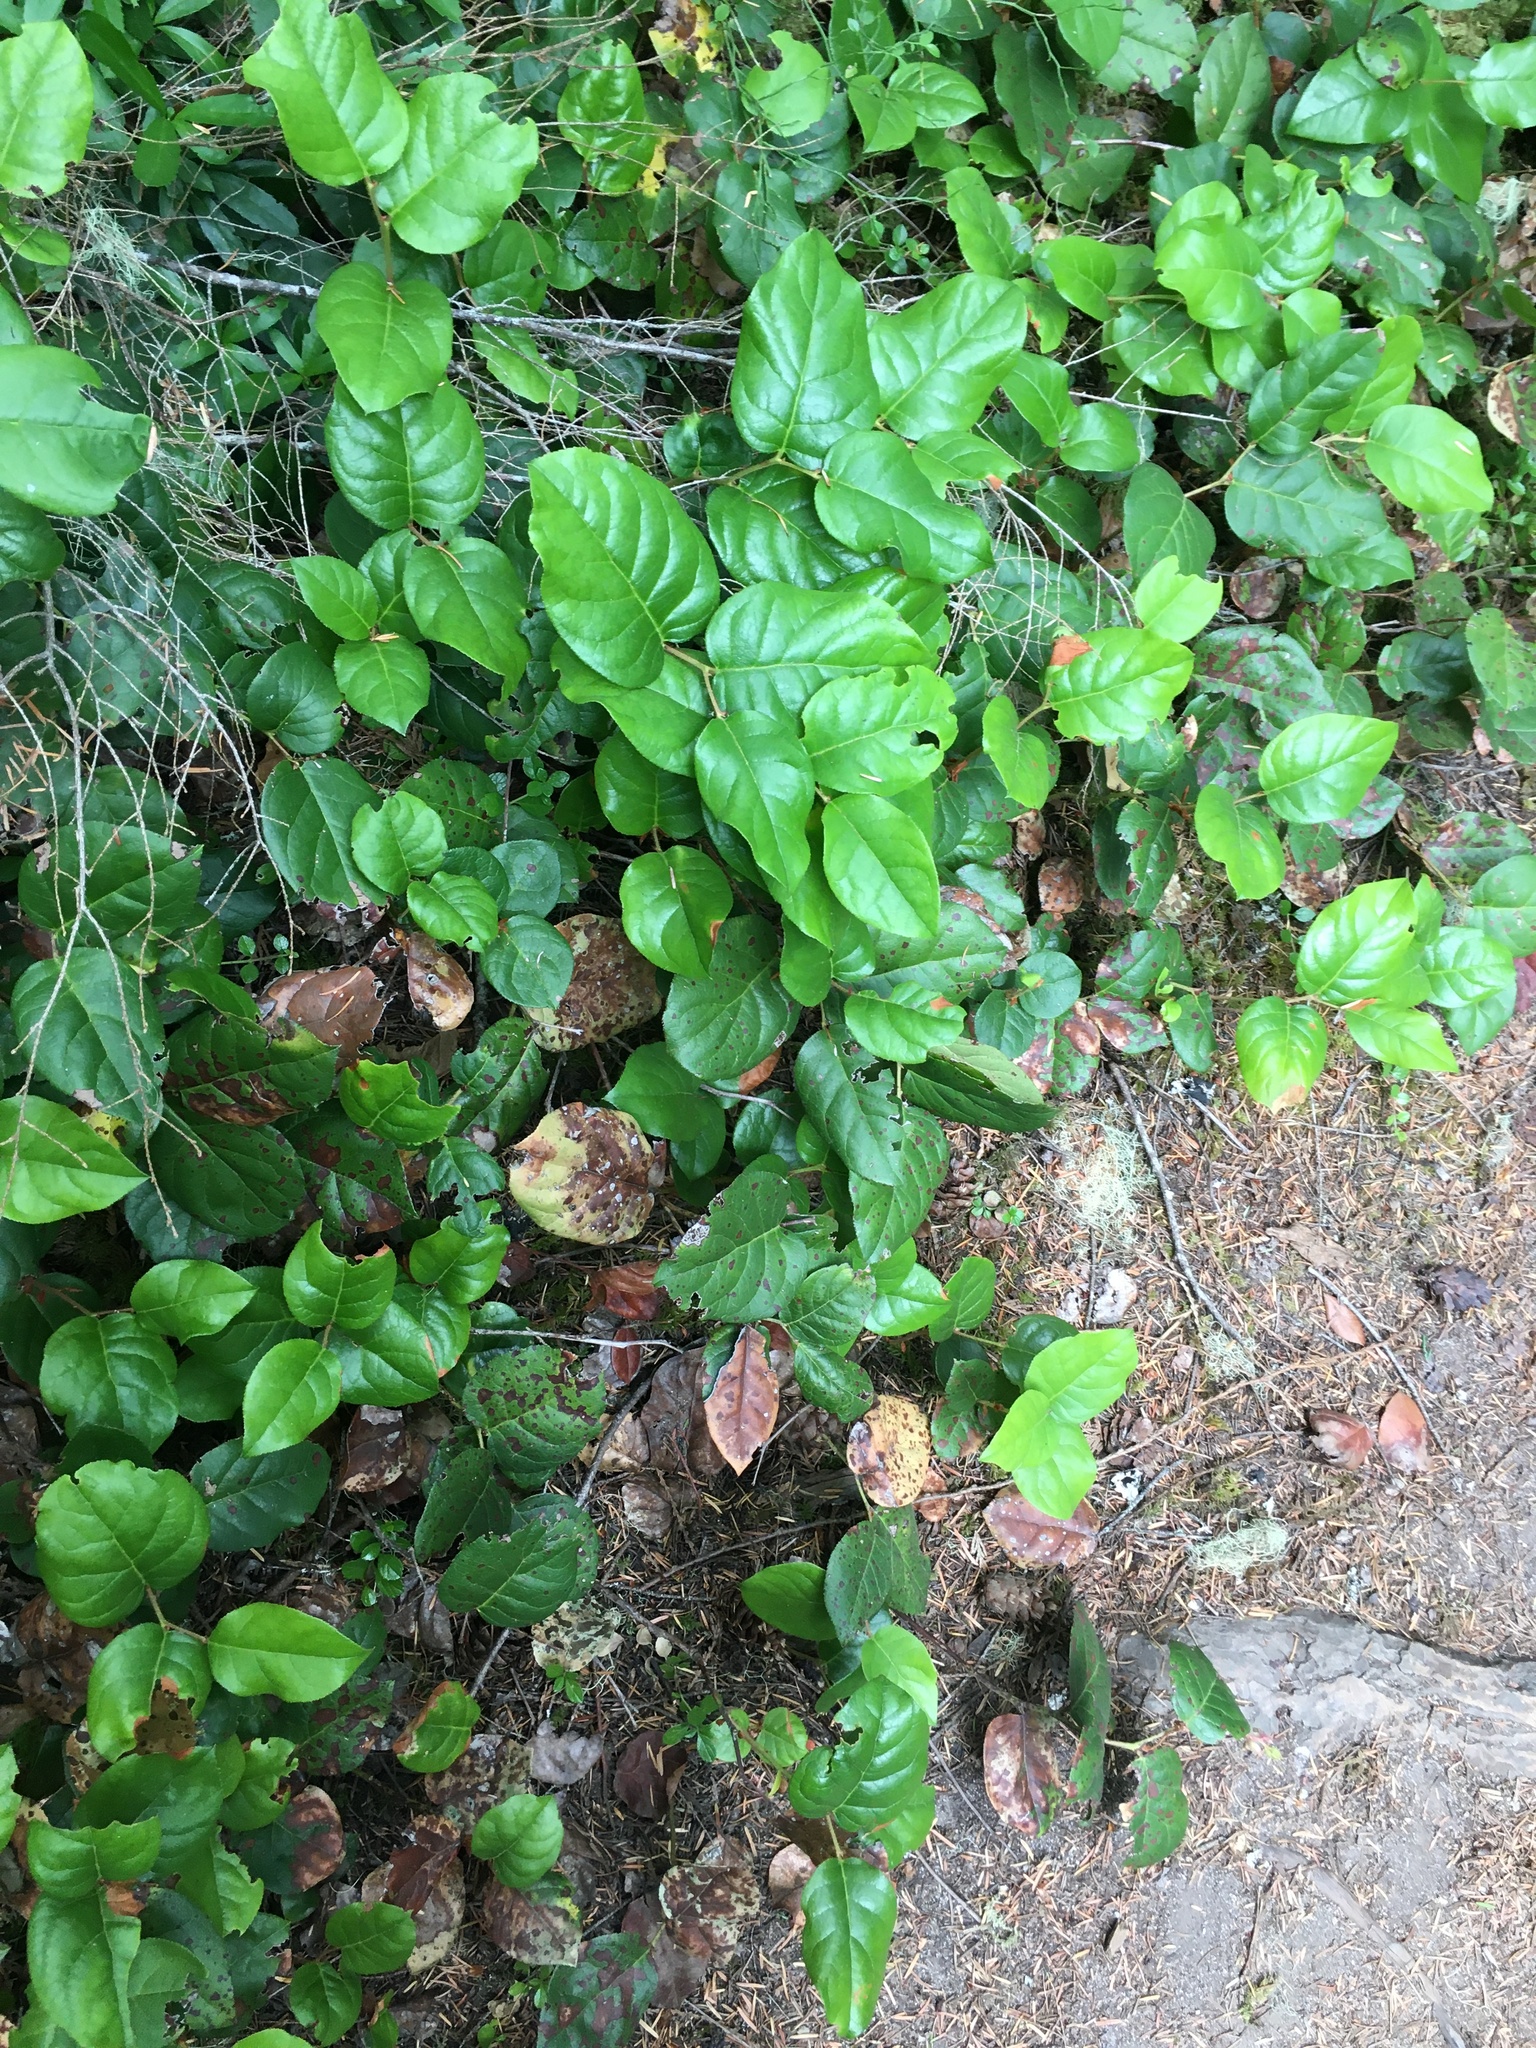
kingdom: Plantae
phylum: Tracheophyta
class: Magnoliopsida
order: Ericales
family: Ericaceae
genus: Gaultheria
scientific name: Gaultheria shallon
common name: Shallon
